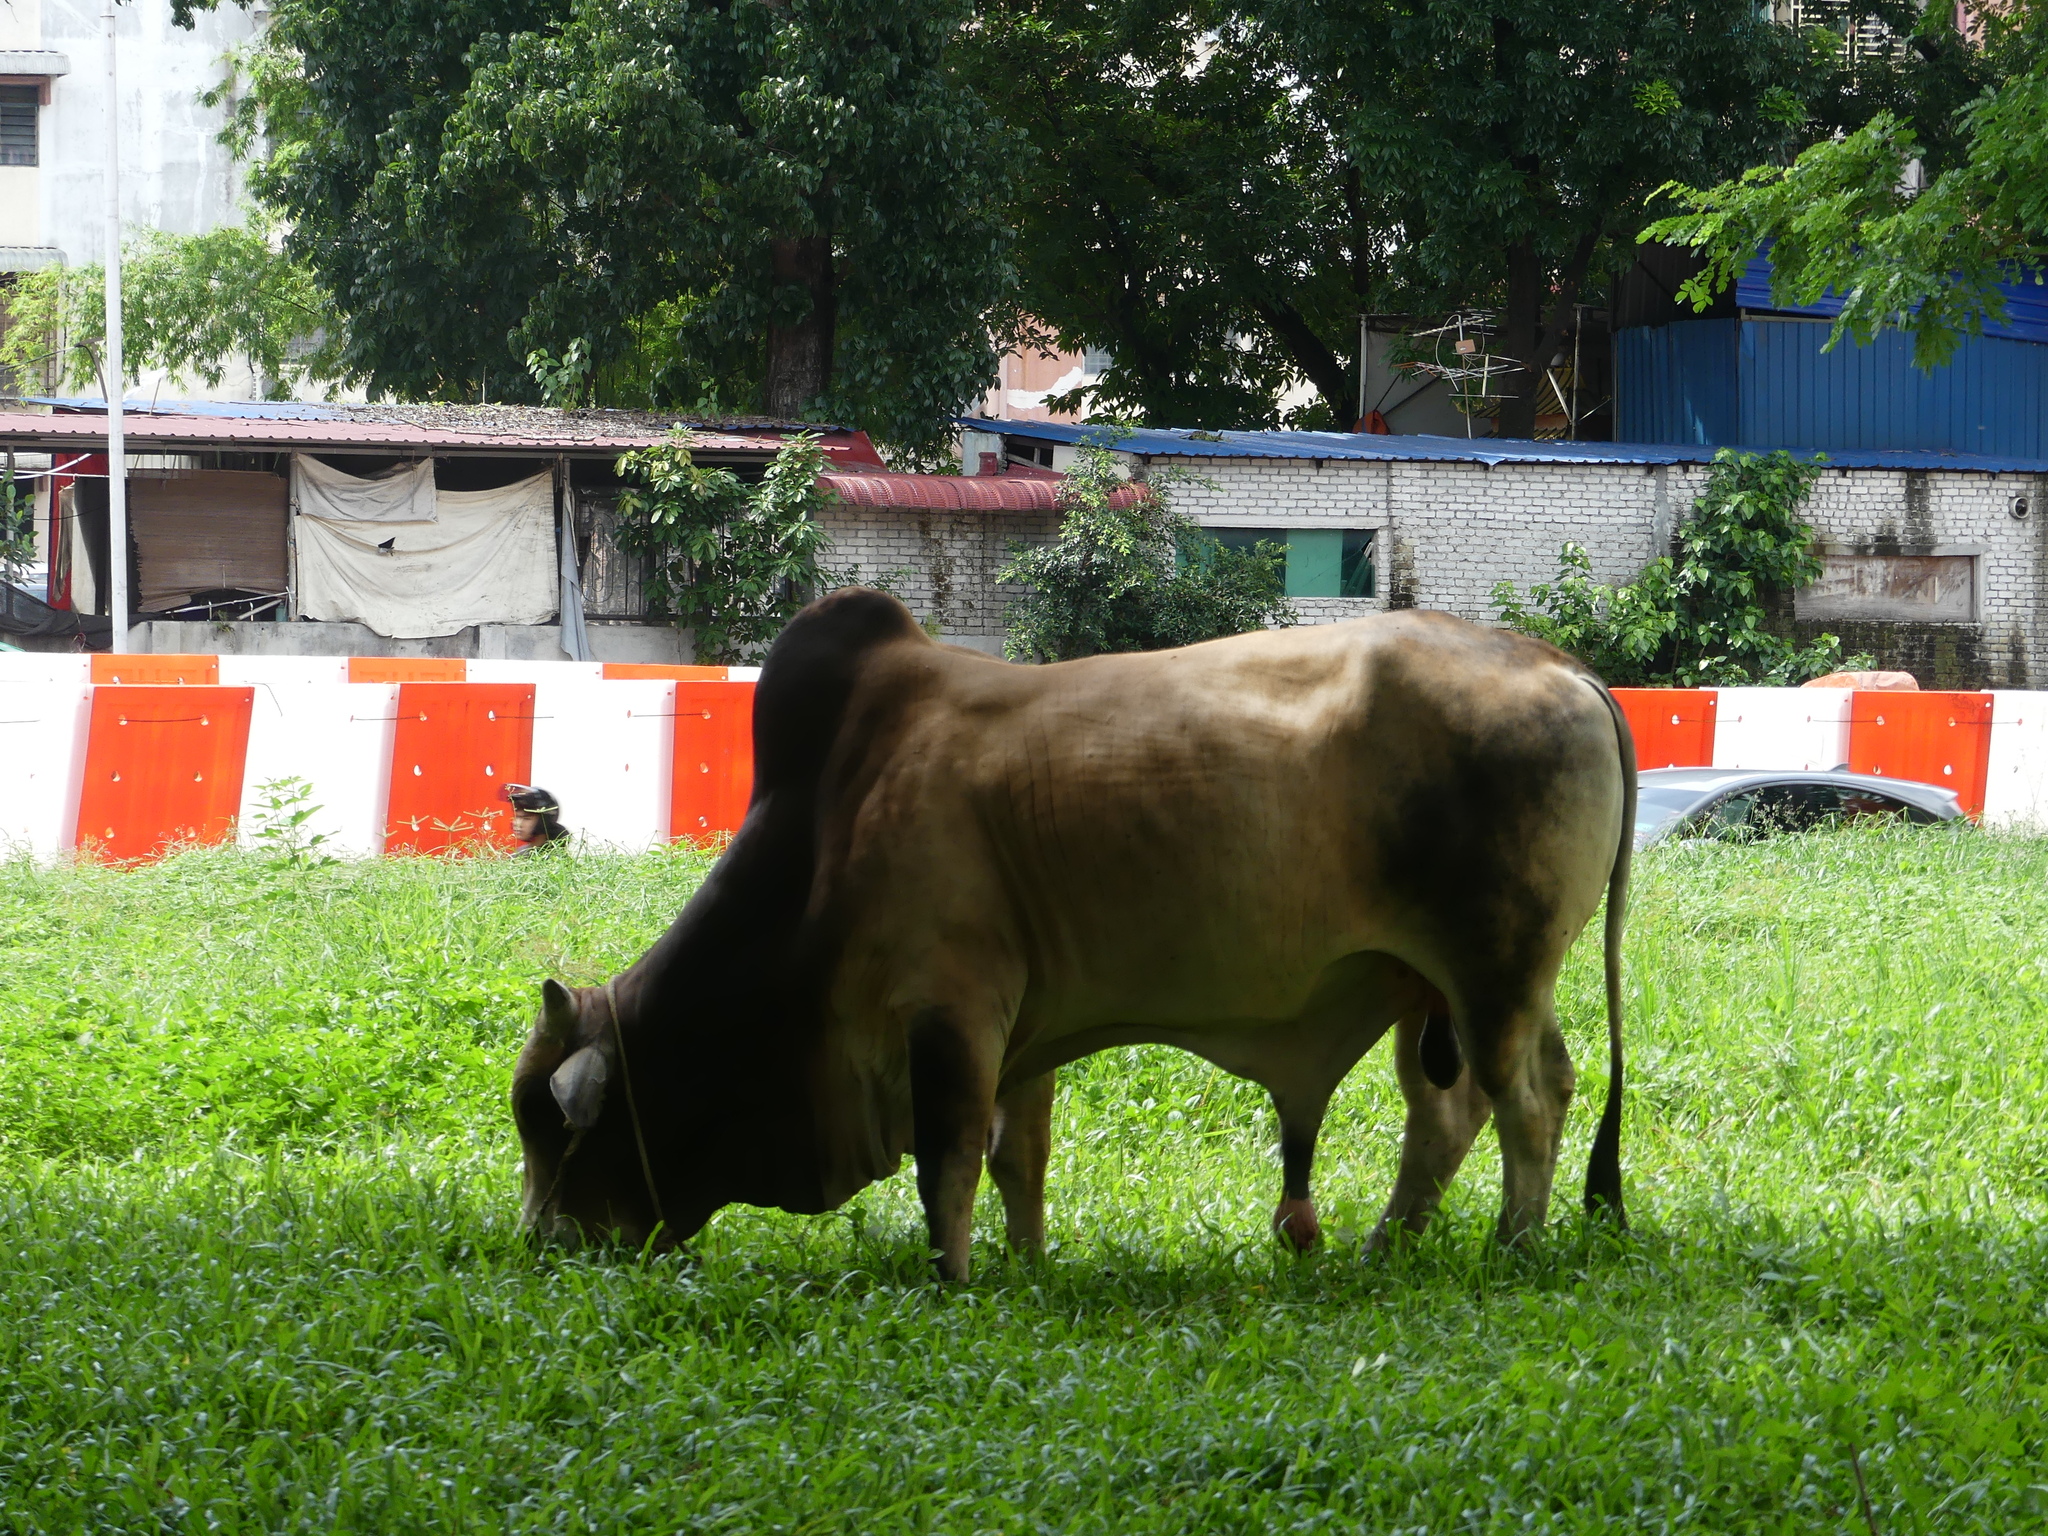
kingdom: Animalia
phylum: Chordata
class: Mammalia
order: Artiodactyla
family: Bovidae
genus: Bos
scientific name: Bos taurus
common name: Domesticated cattle
